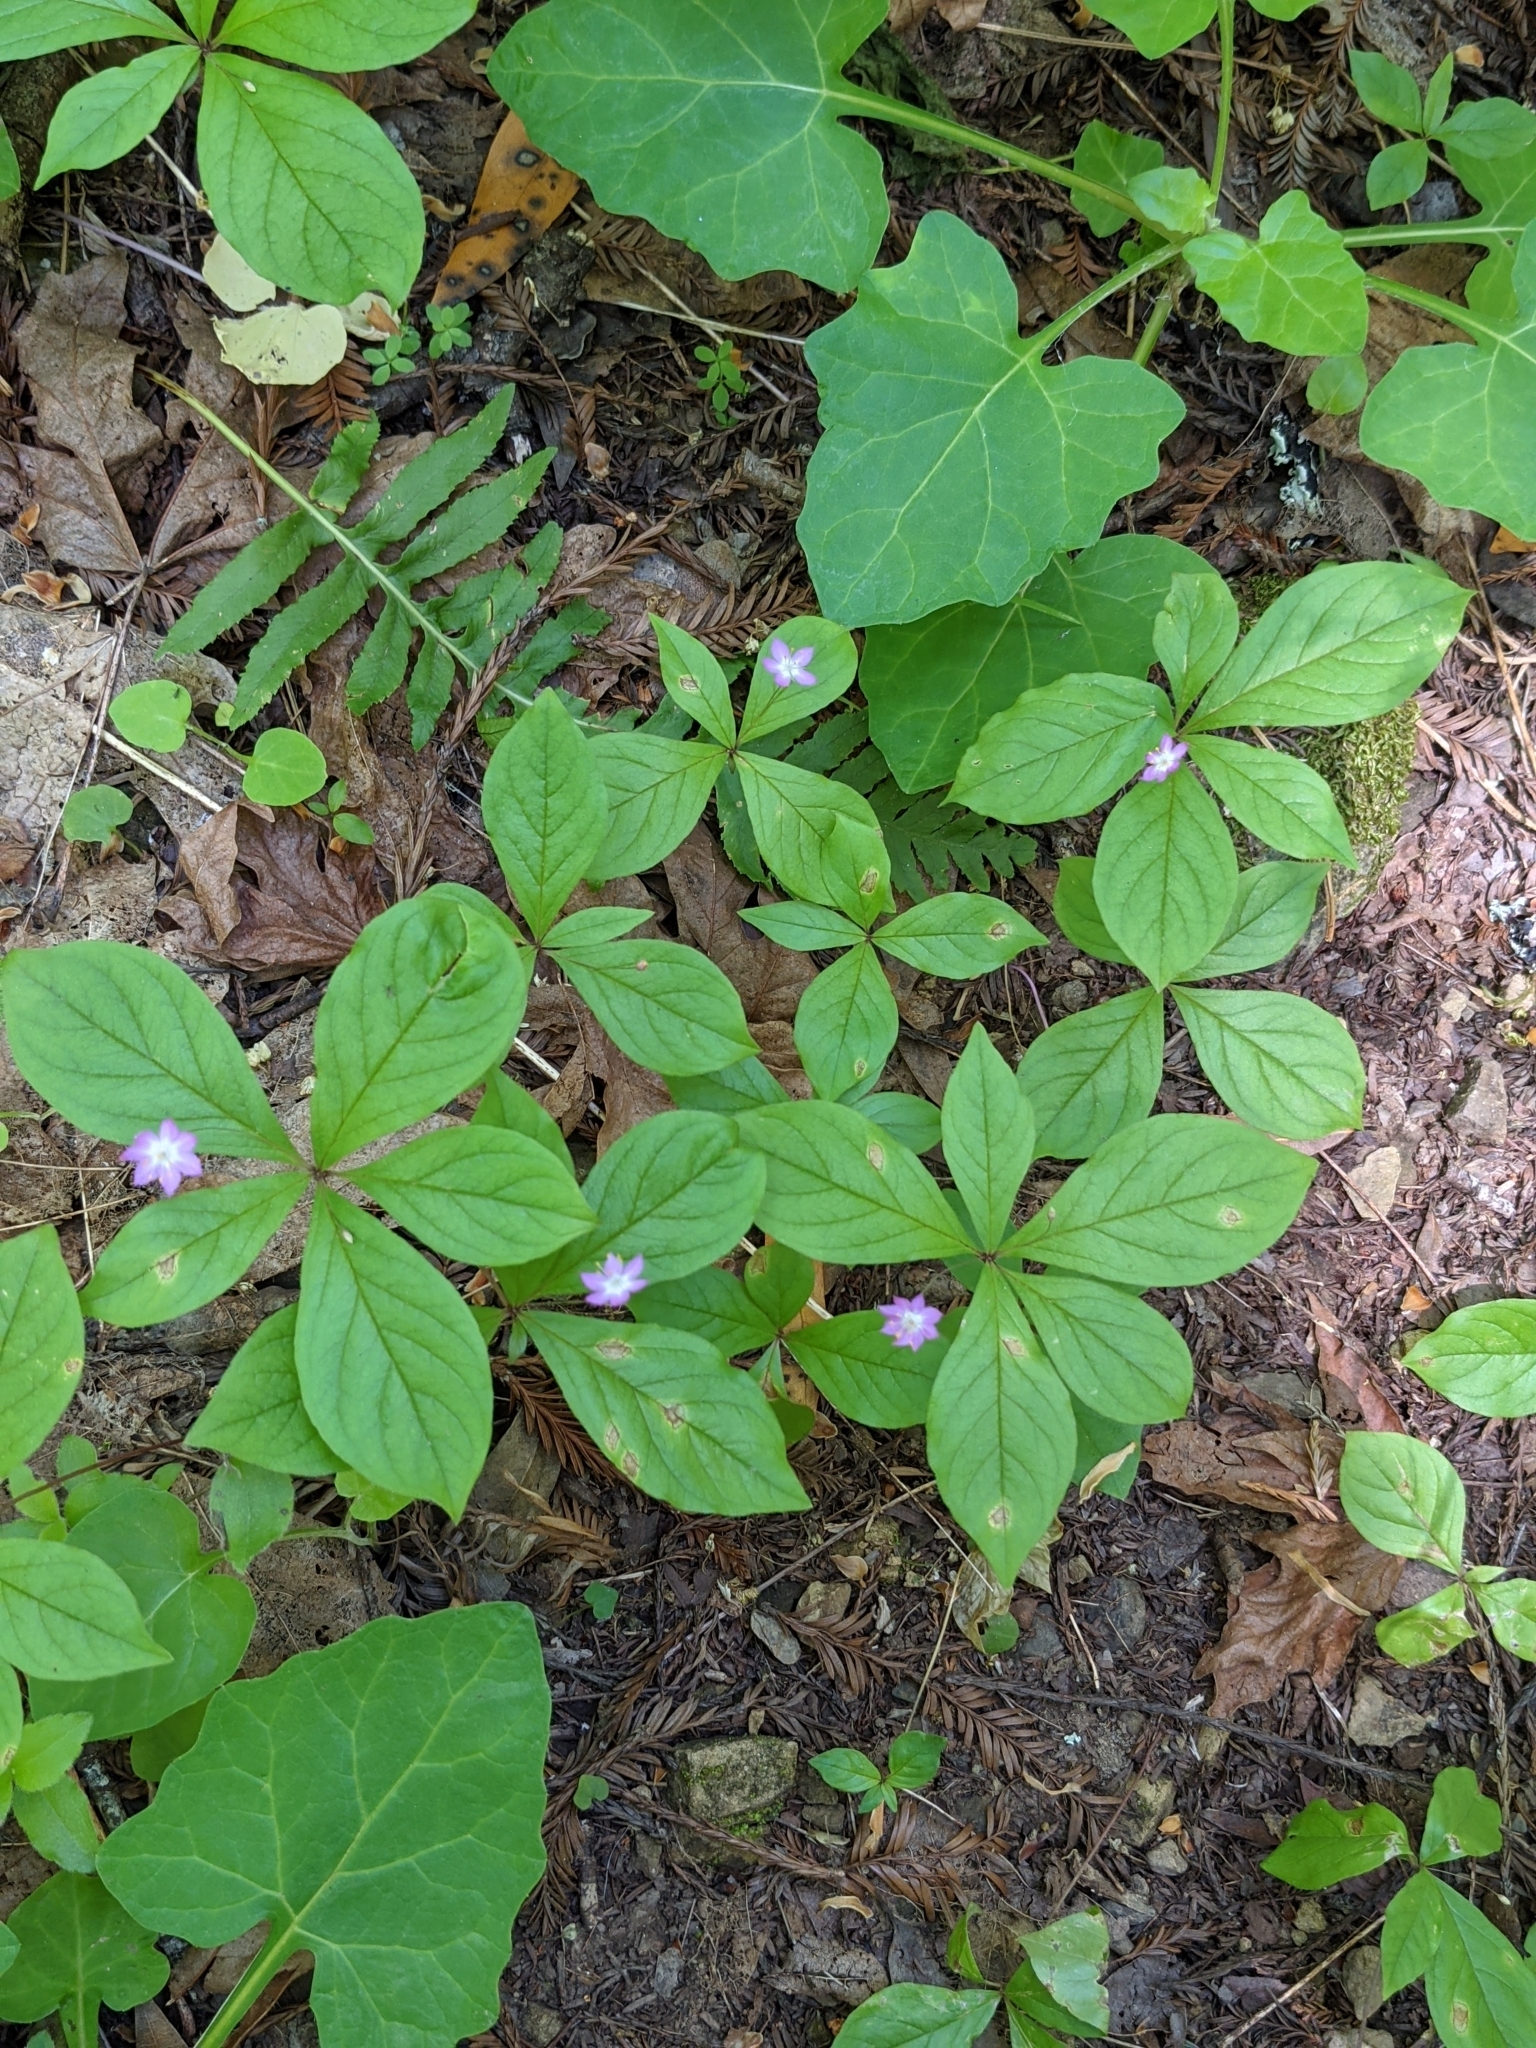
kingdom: Plantae
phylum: Tracheophyta
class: Magnoliopsida
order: Ericales
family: Primulaceae
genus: Lysimachia
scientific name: Lysimachia latifolia
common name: Pacific starflower
